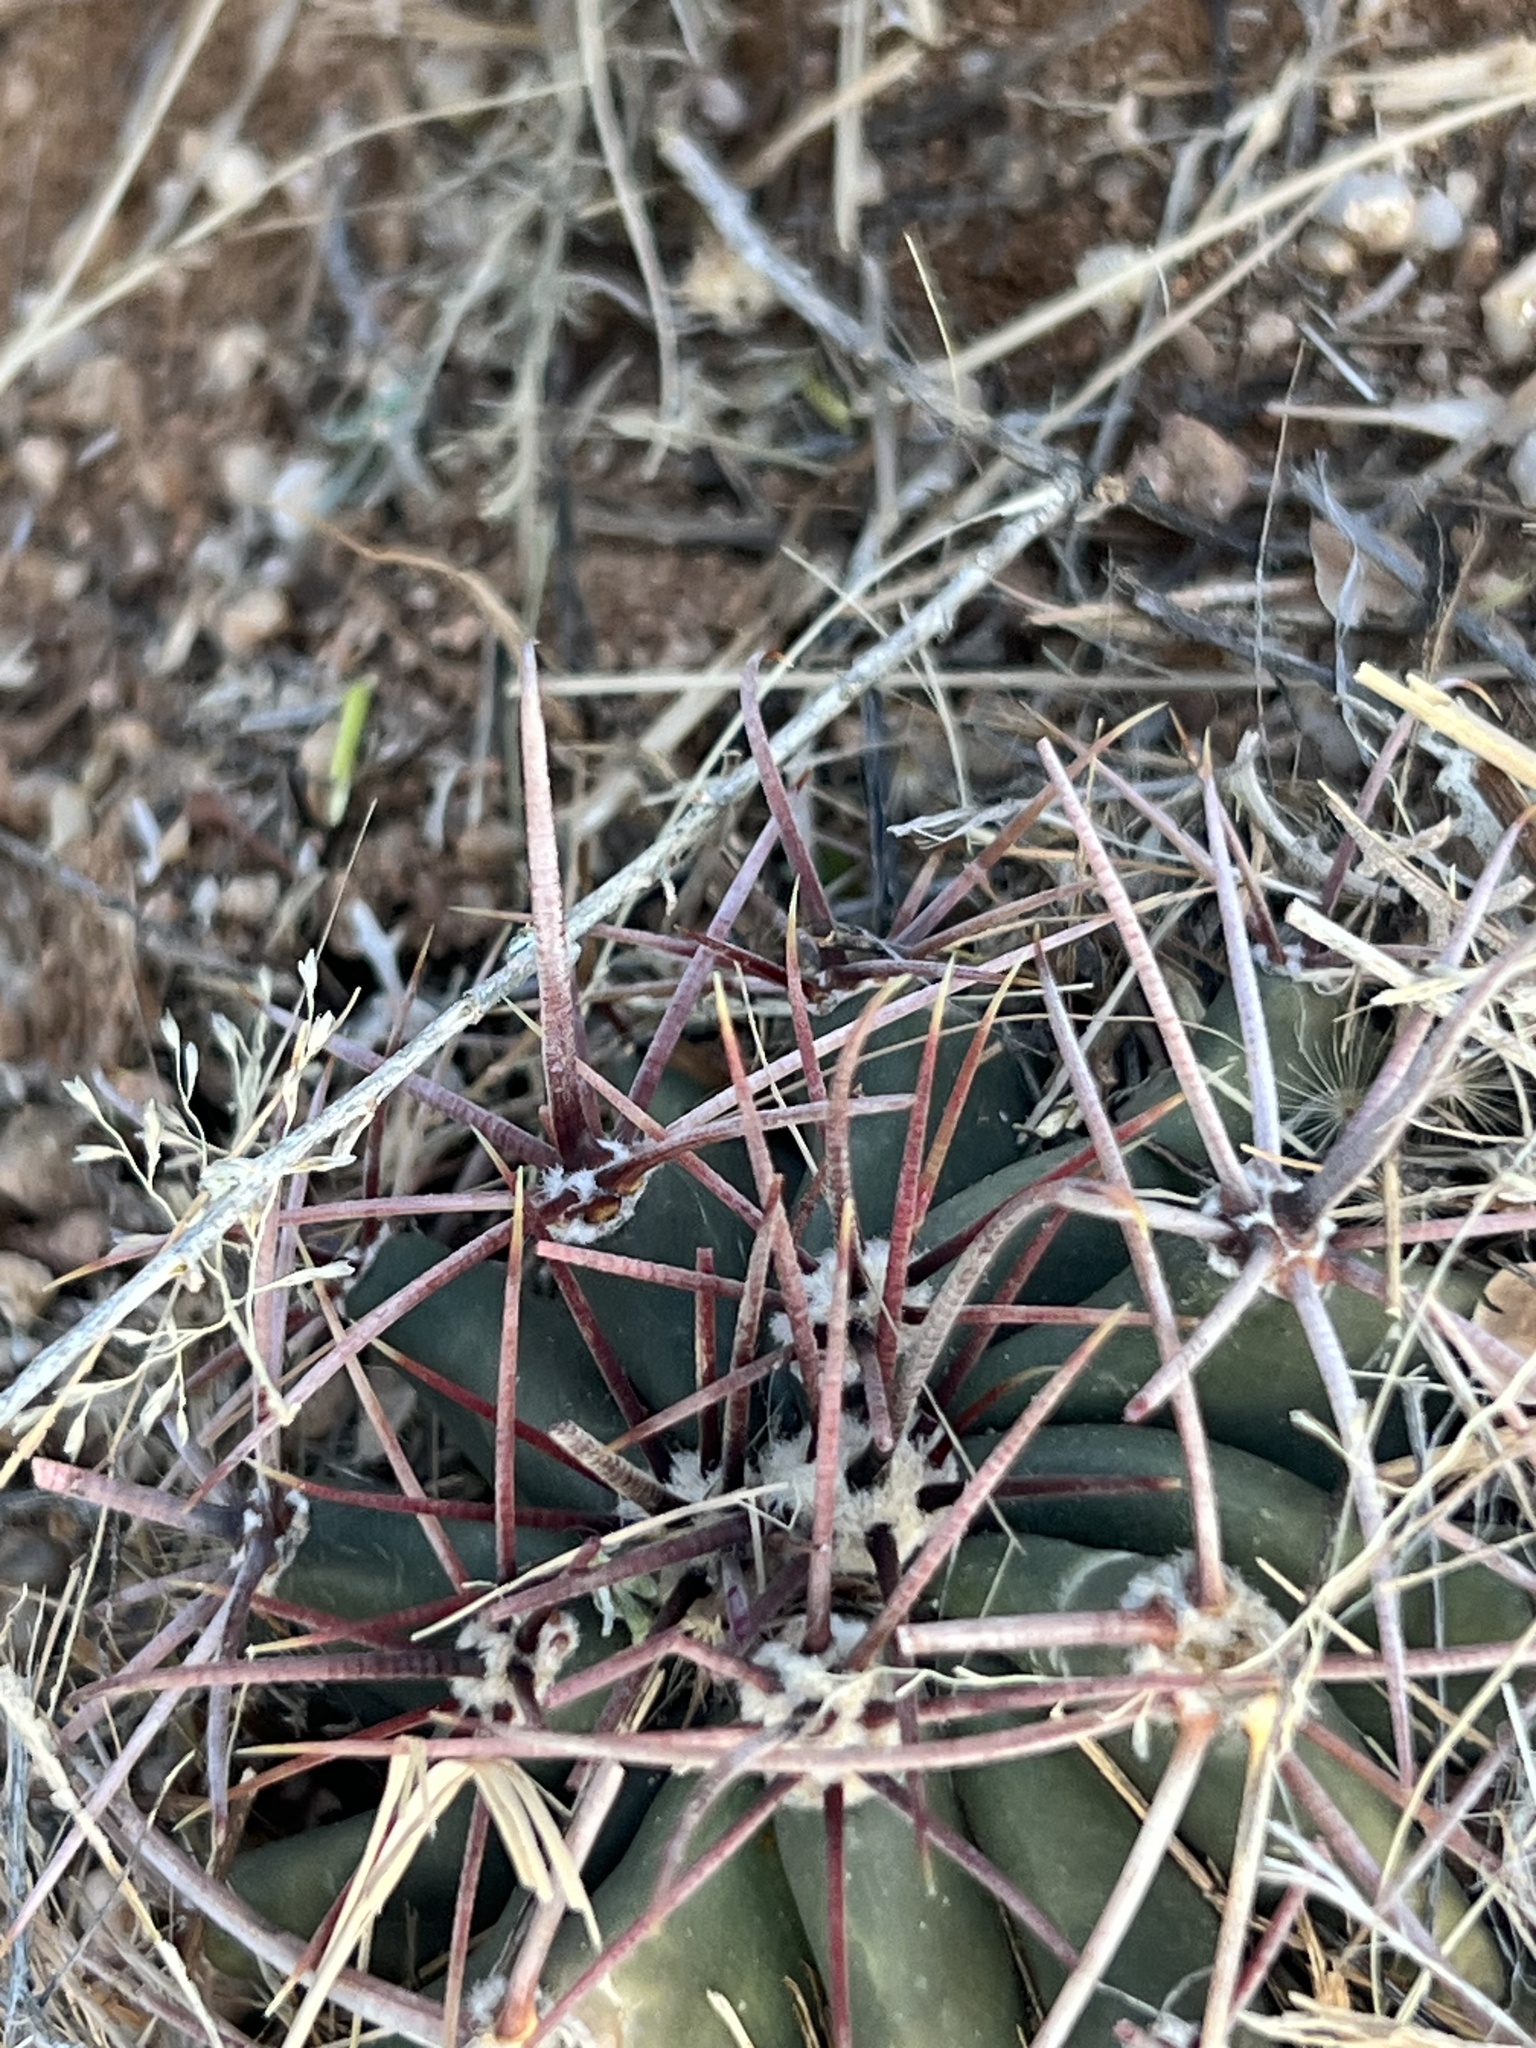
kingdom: Plantae
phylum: Tracheophyta
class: Magnoliopsida
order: Caryophyllales
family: Cactaceae
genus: Ferocactus
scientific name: Ferocactus wislizeni
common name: Candy barrel cactus
